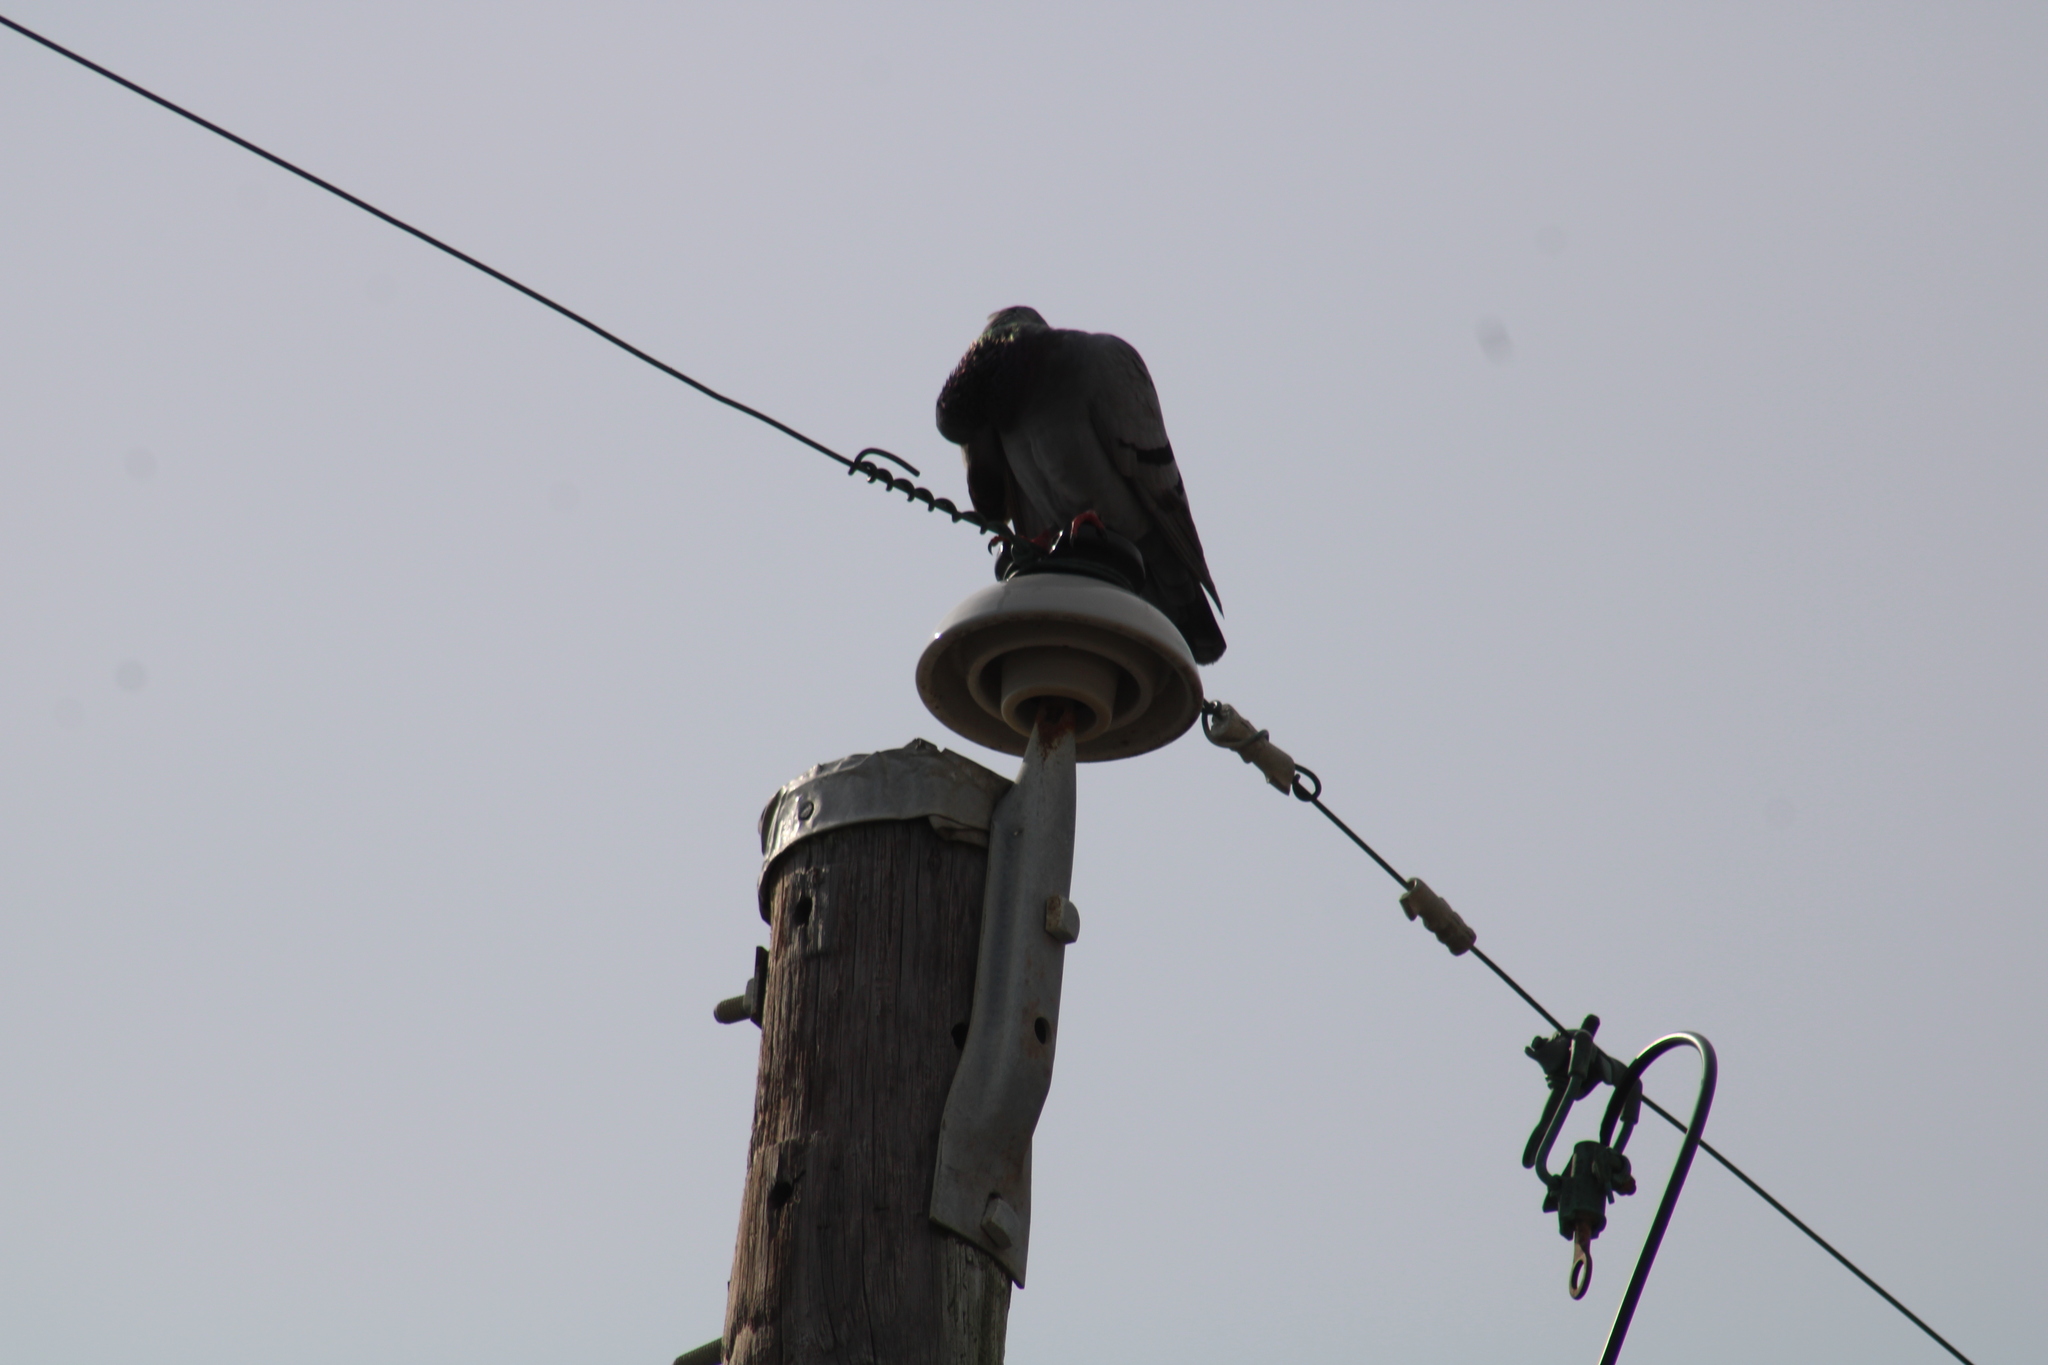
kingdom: Animalia
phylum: Chordata
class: Aves
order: Columbiformes
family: Columbidae
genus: Columba
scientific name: Columba livia
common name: Rock pigeon
